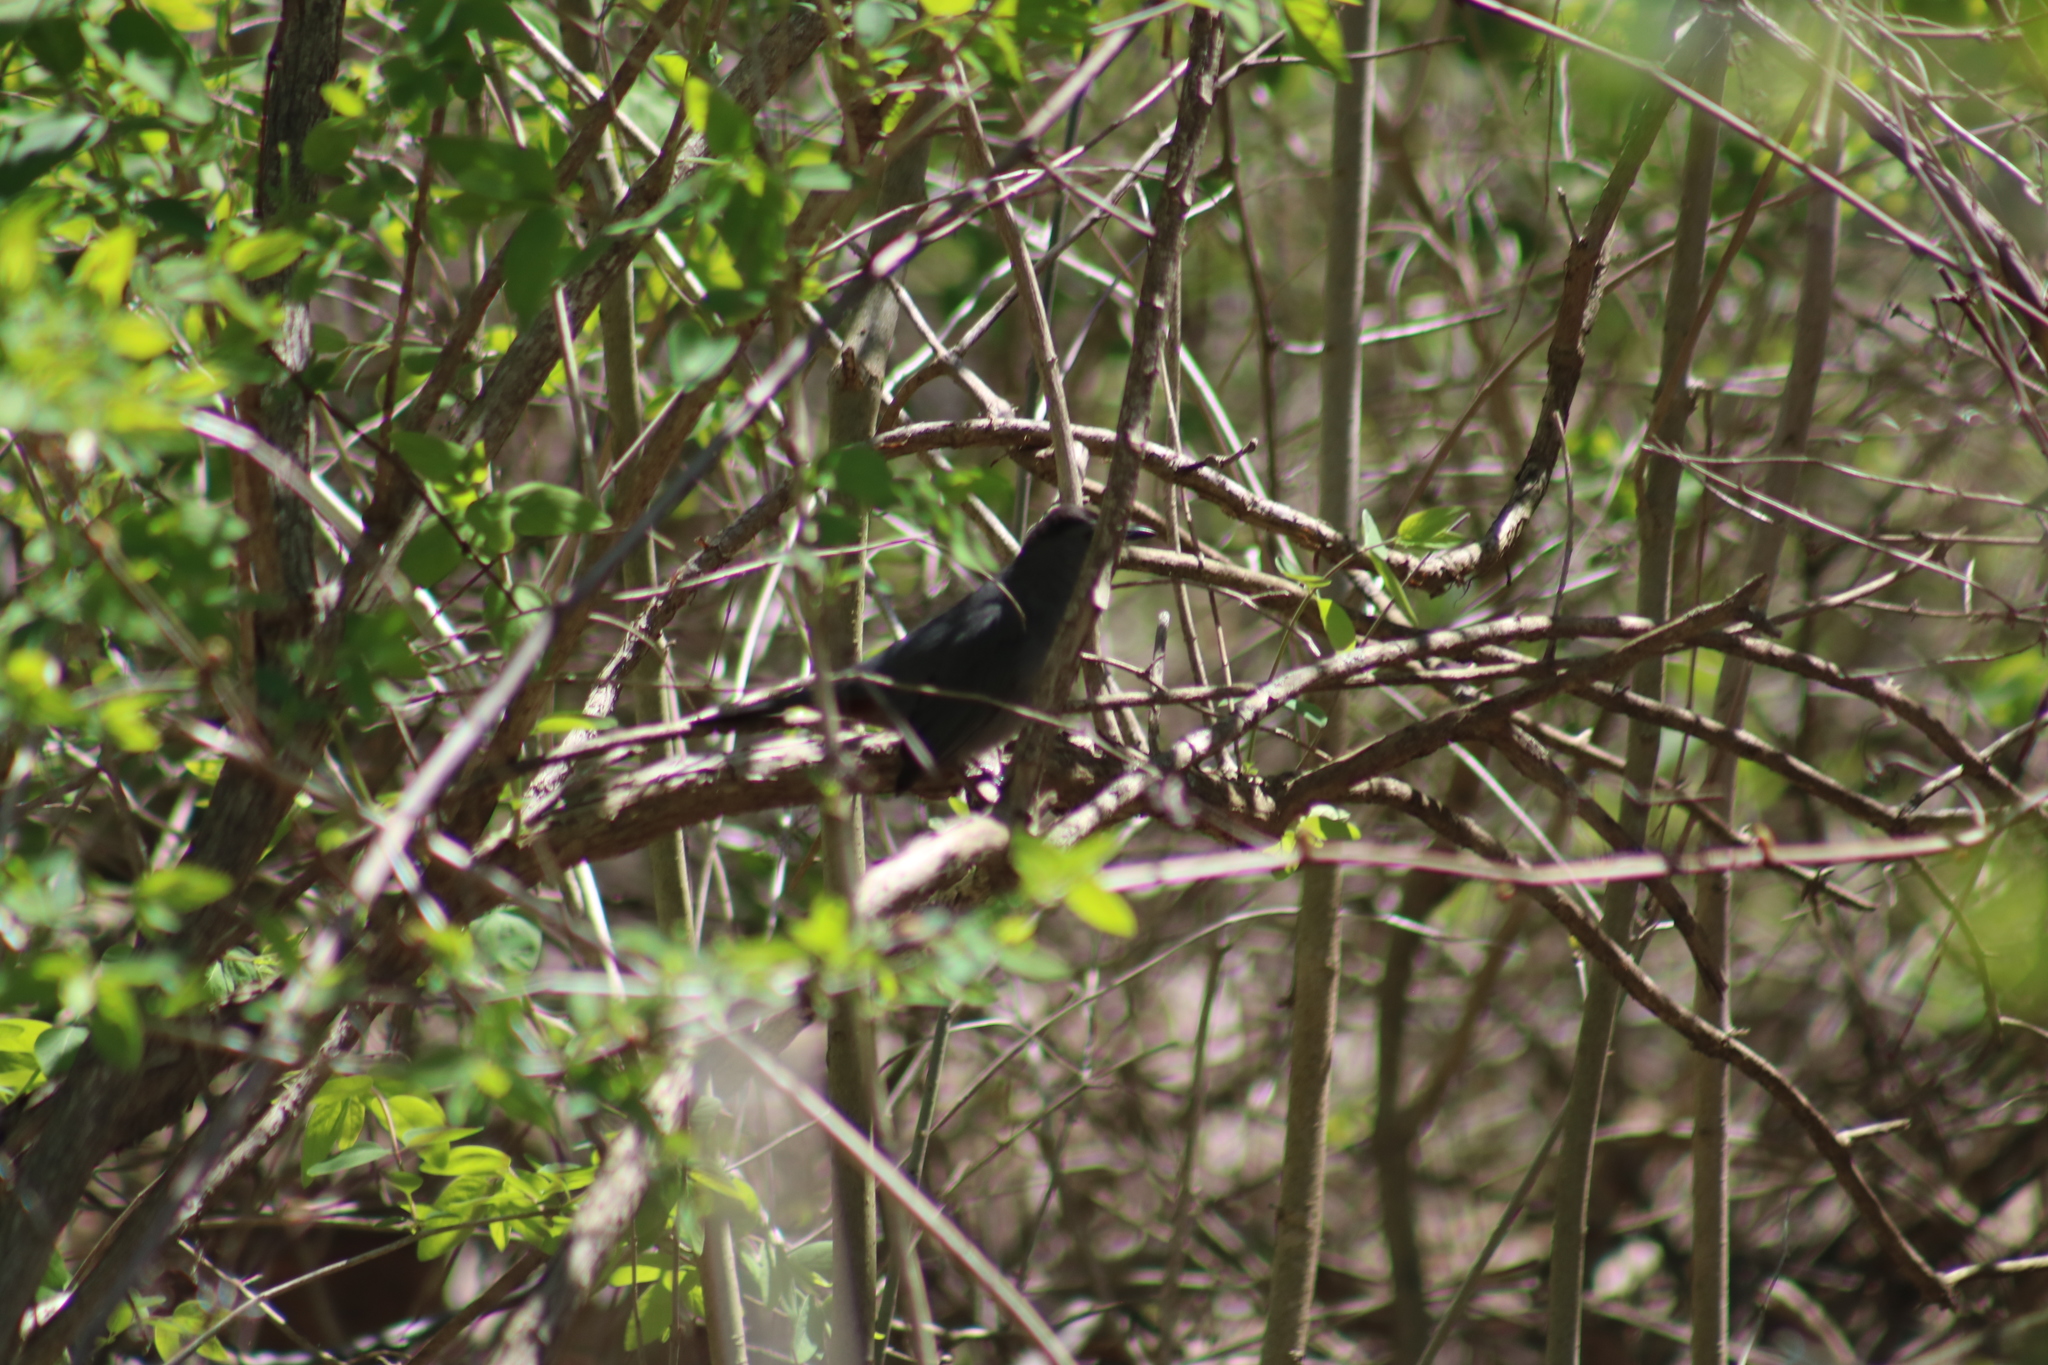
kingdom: Animalia
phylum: Chordata
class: Aves
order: Passeriformes
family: Mimidae
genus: Dumetella
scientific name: Dumetella carolinensis
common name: Gray catbird
